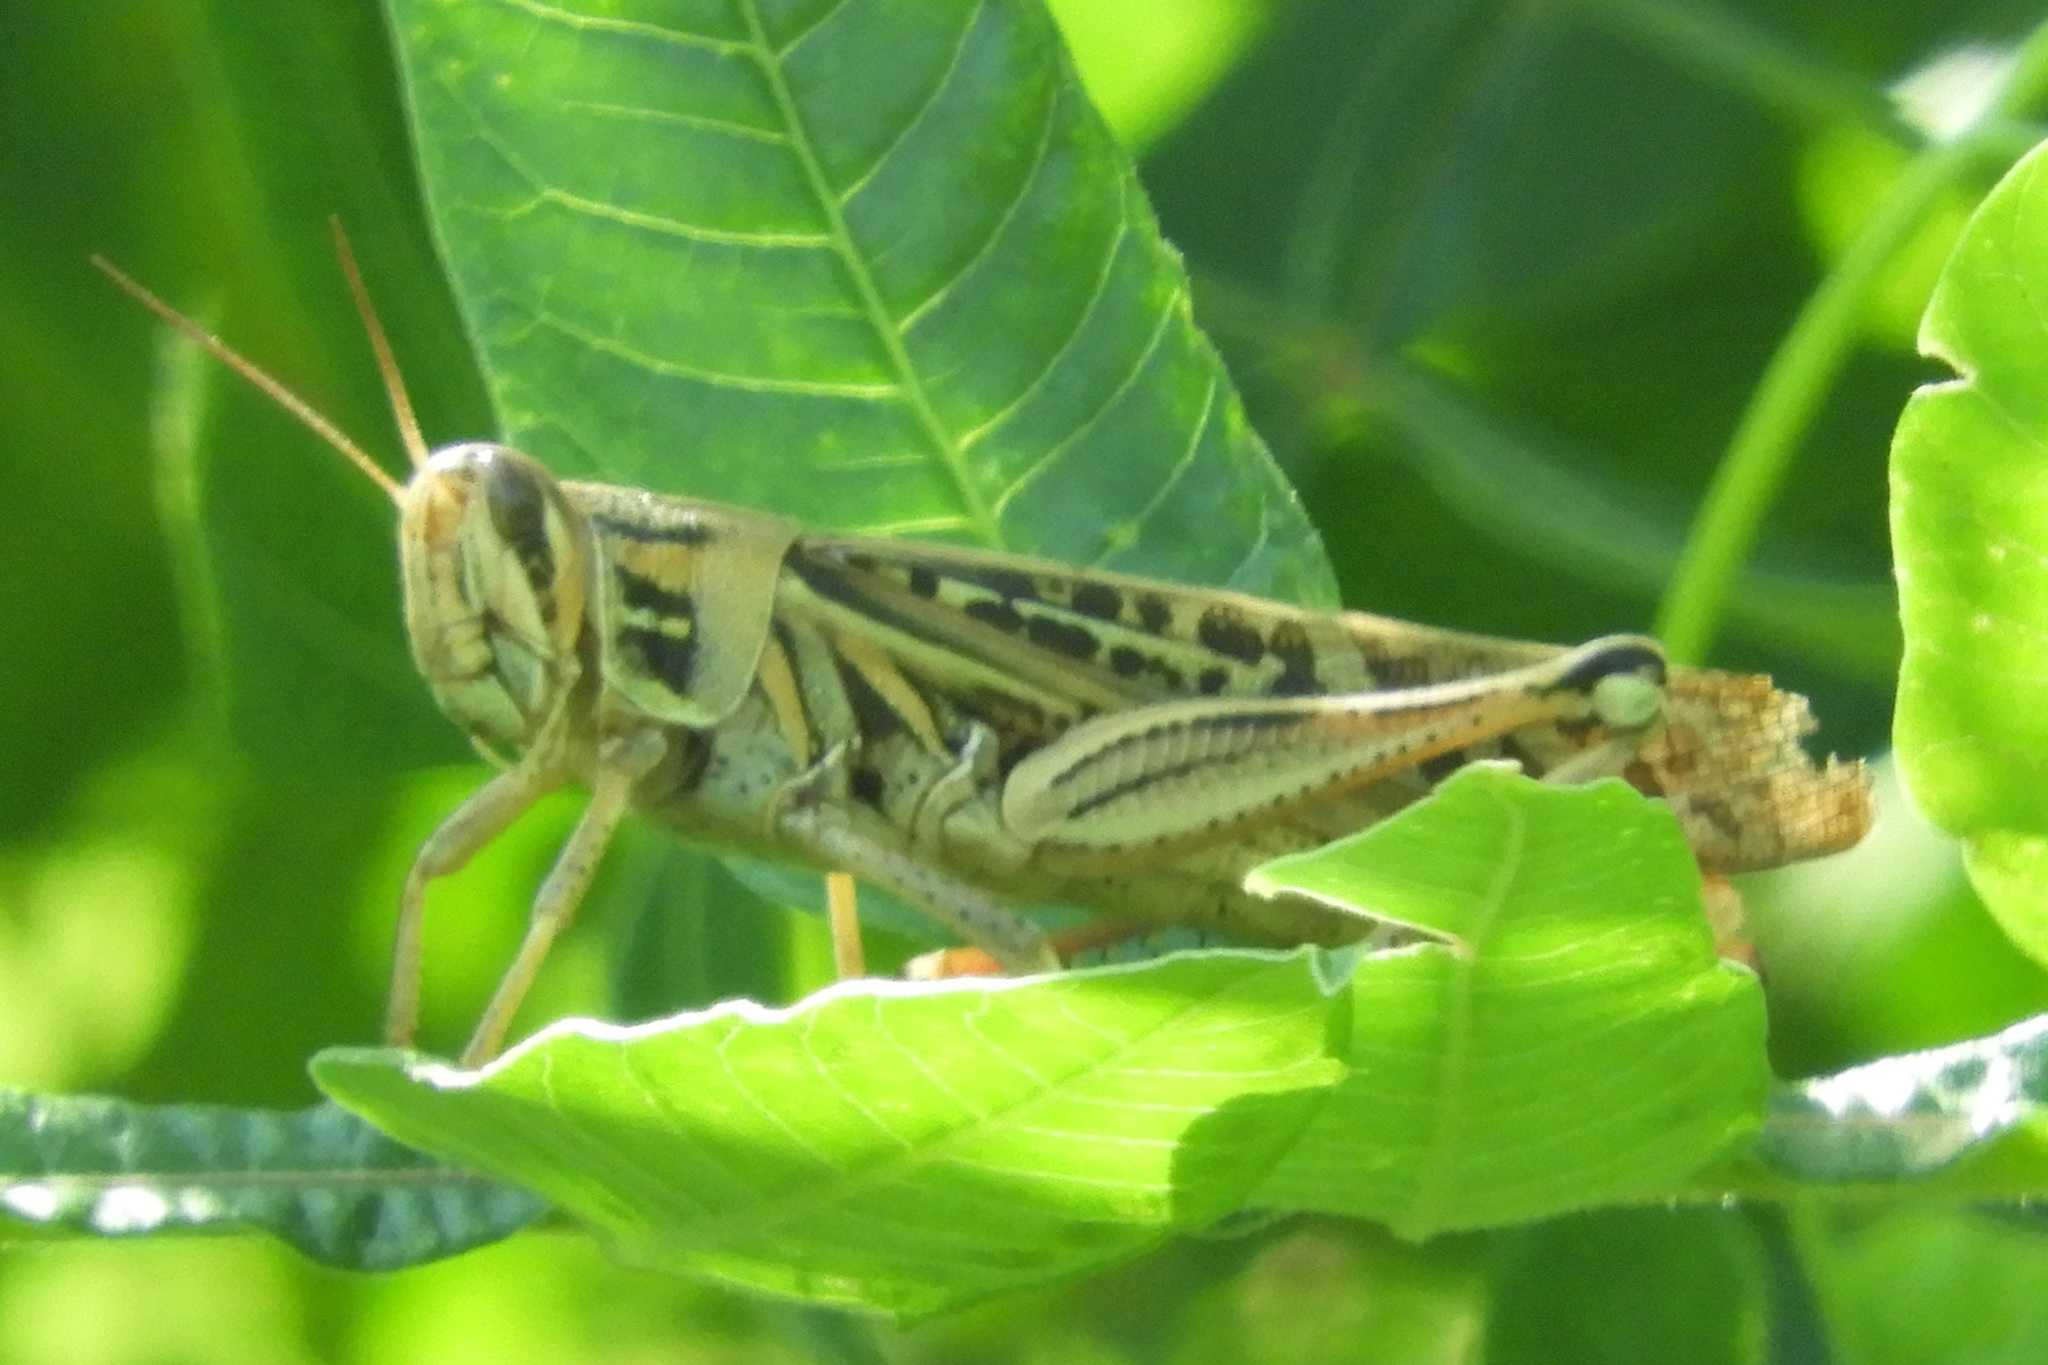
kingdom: Animalia
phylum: Arthropoda
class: Insecta
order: Orthoptera
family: Acrididae
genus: Schistocerca
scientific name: Schistocerca americana
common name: American bird locust
